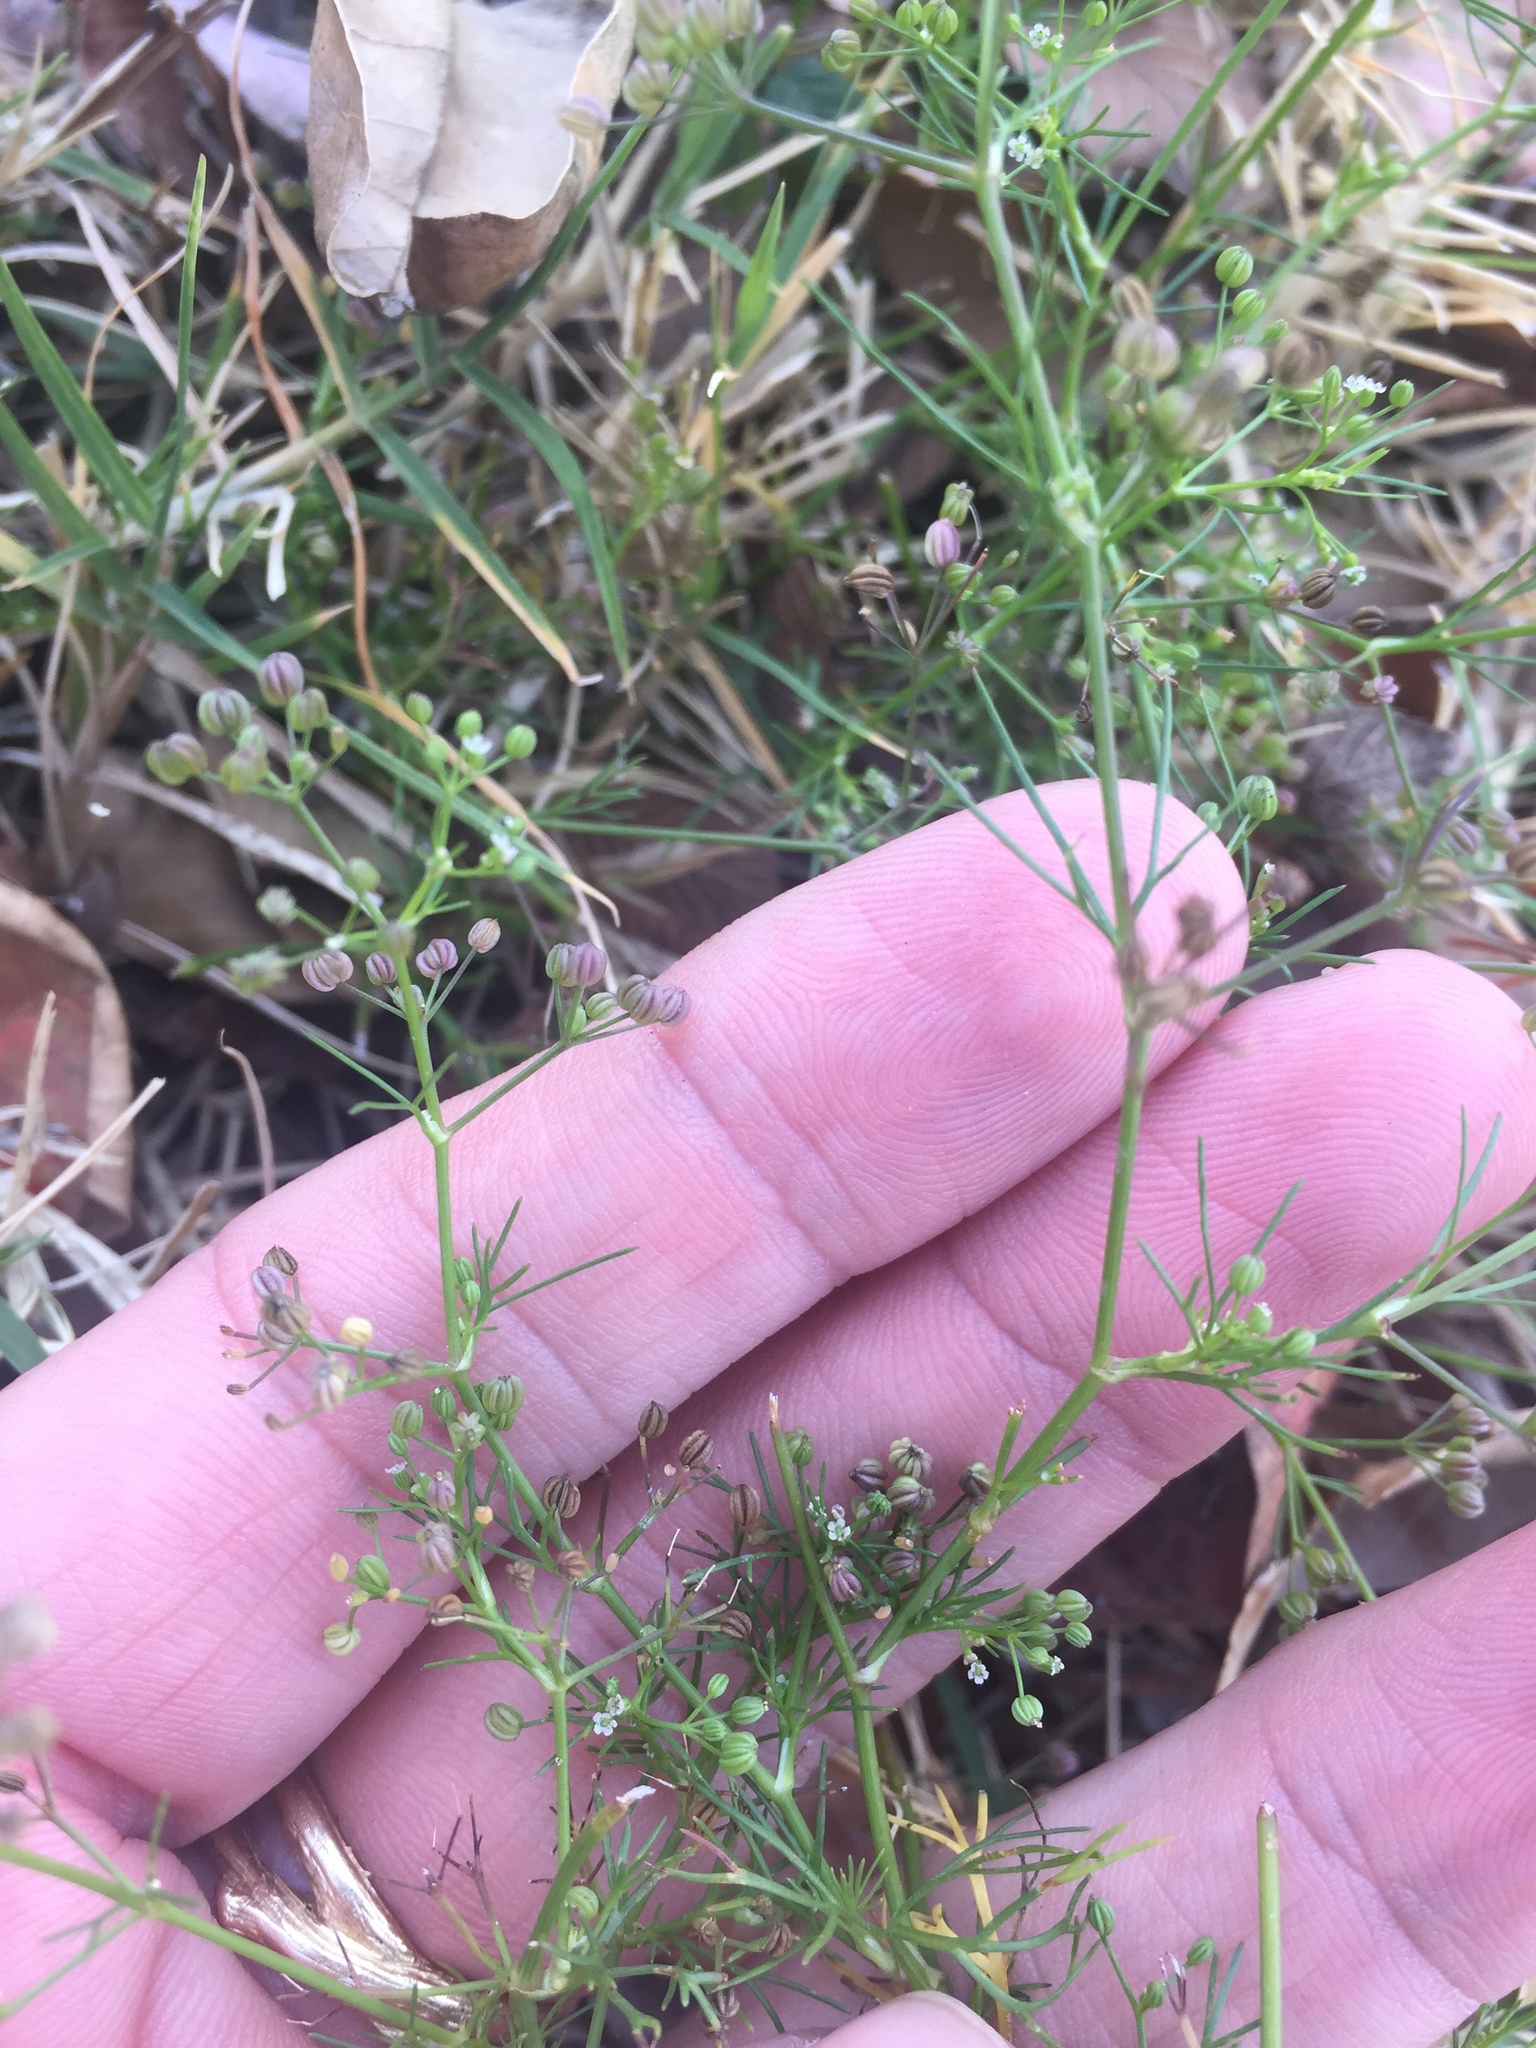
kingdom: Plantae
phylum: Tracheophyta
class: Magnoliopsida
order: Apiales
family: Apiaceae
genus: Cyclospermum
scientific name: Cyclospermum leptophyllum
